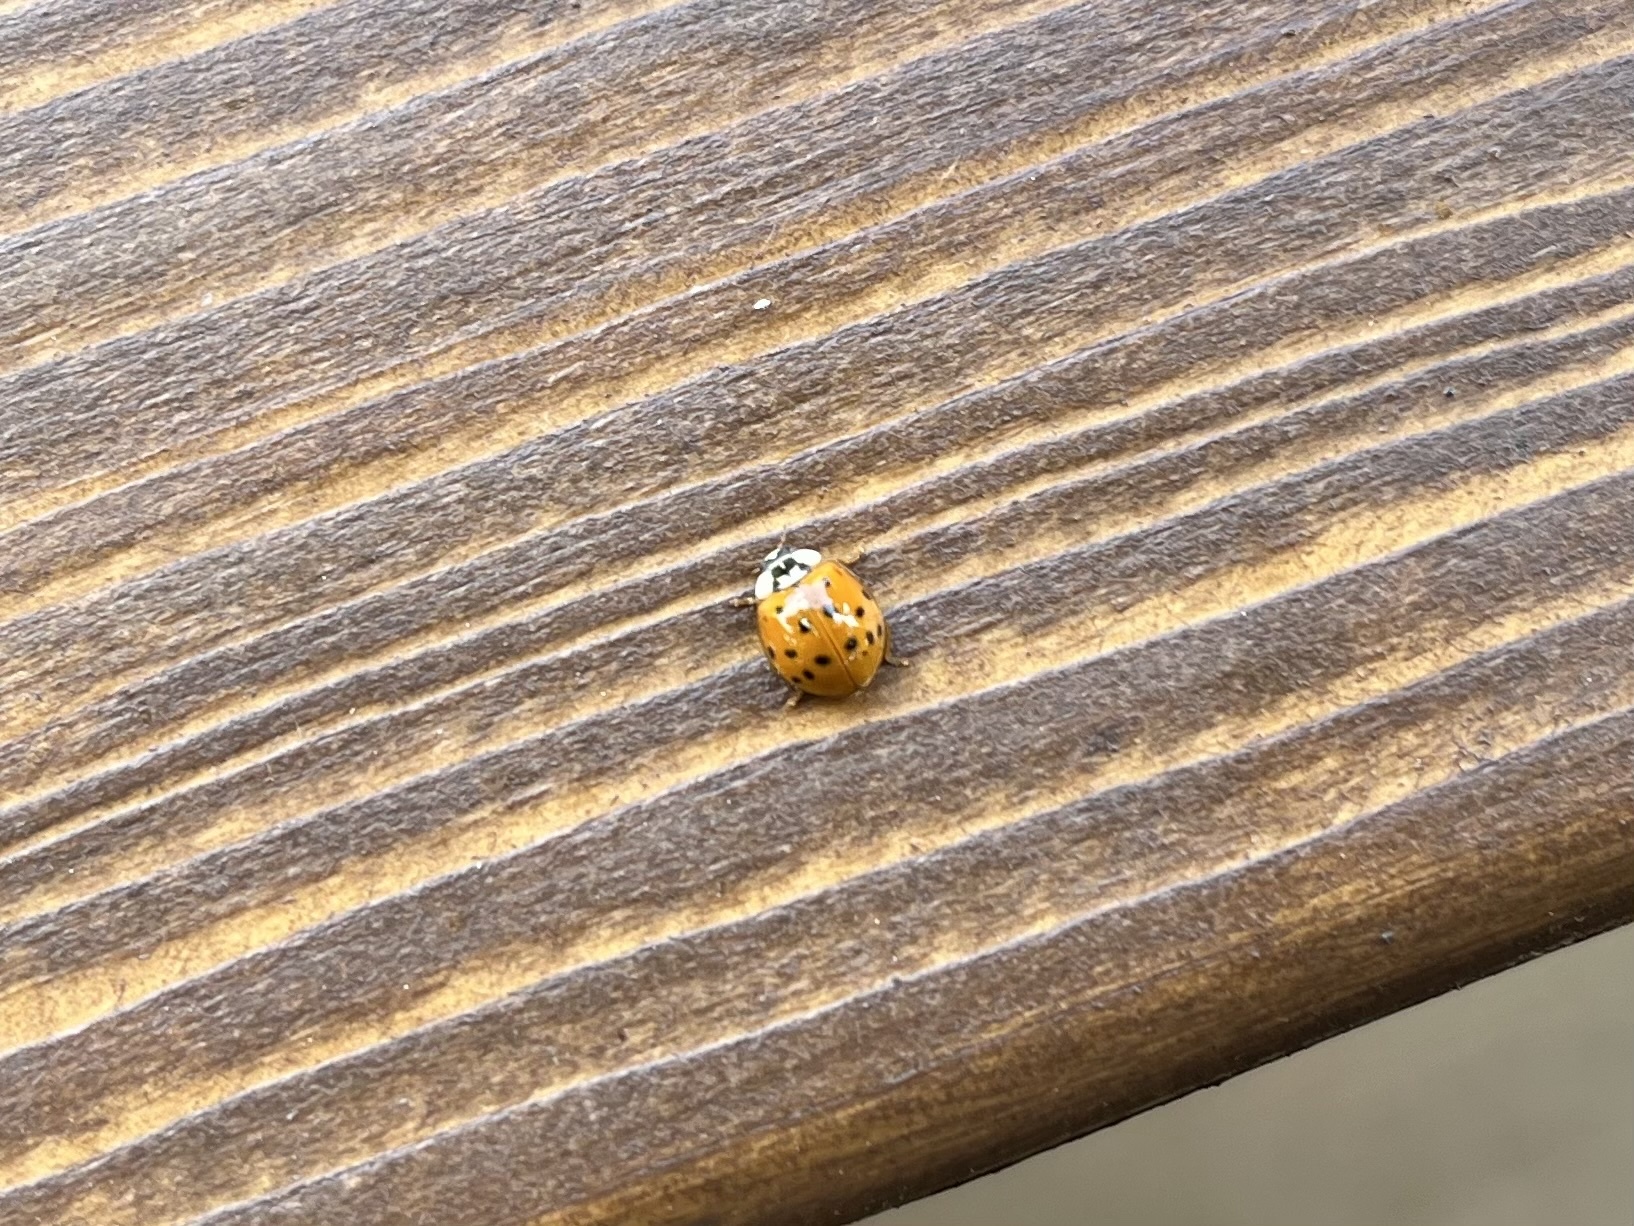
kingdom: Animalia
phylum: Arthropoda
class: Insecta
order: Coleoptera
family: Coccinellidae
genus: Harmonia
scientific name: Harmonia axyridis
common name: Harlequin ladybird
